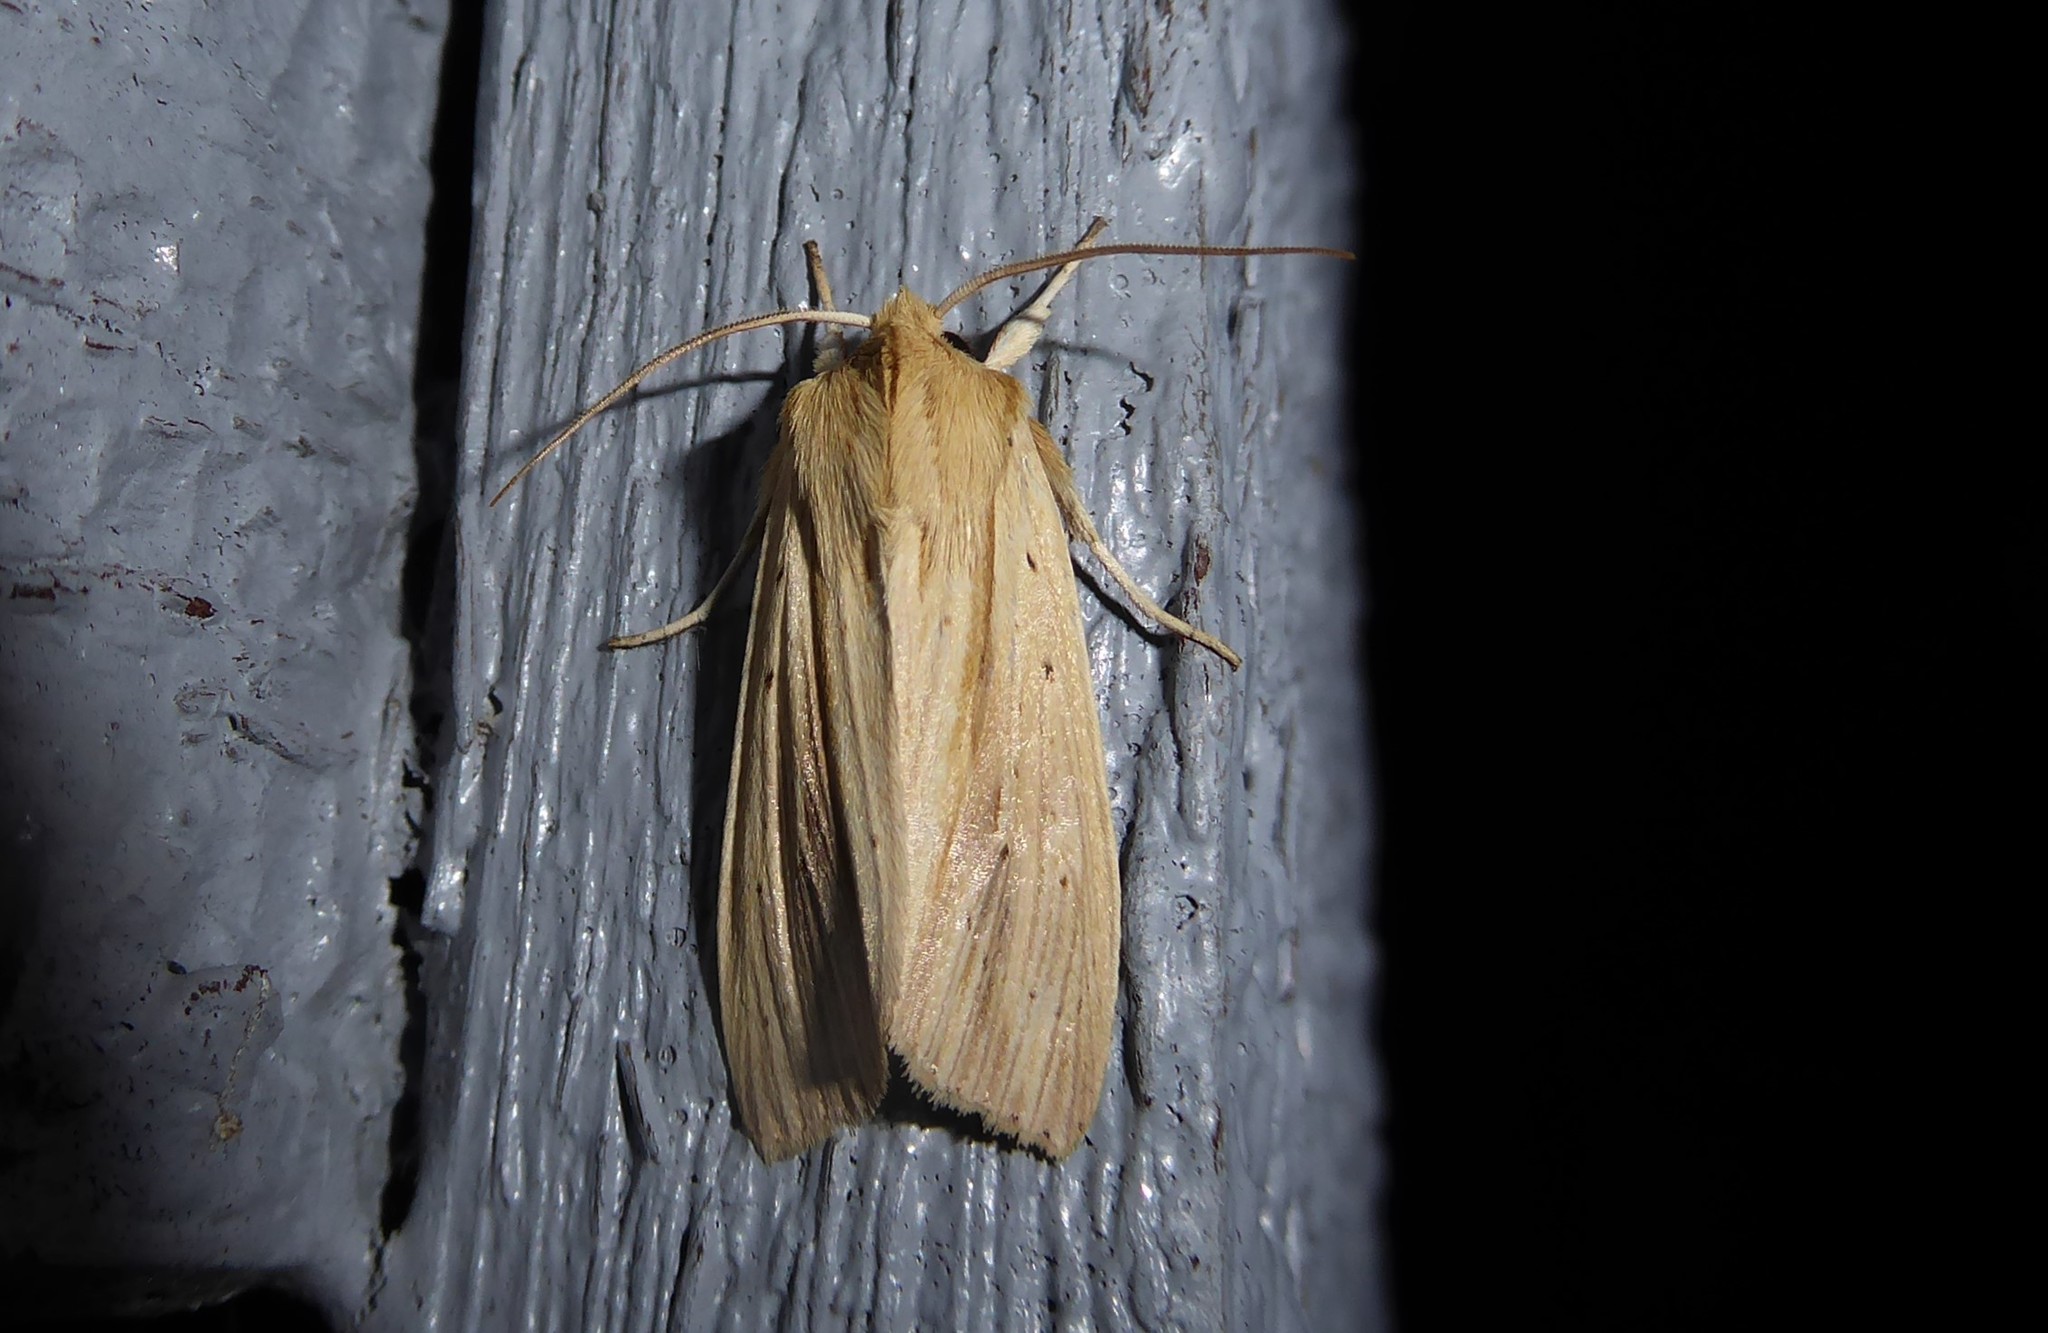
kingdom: Animalia
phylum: Arthropoda
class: Insecta
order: Lepidoptera
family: Noctuidae
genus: Ichneutica
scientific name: Ichneutica semivittata
